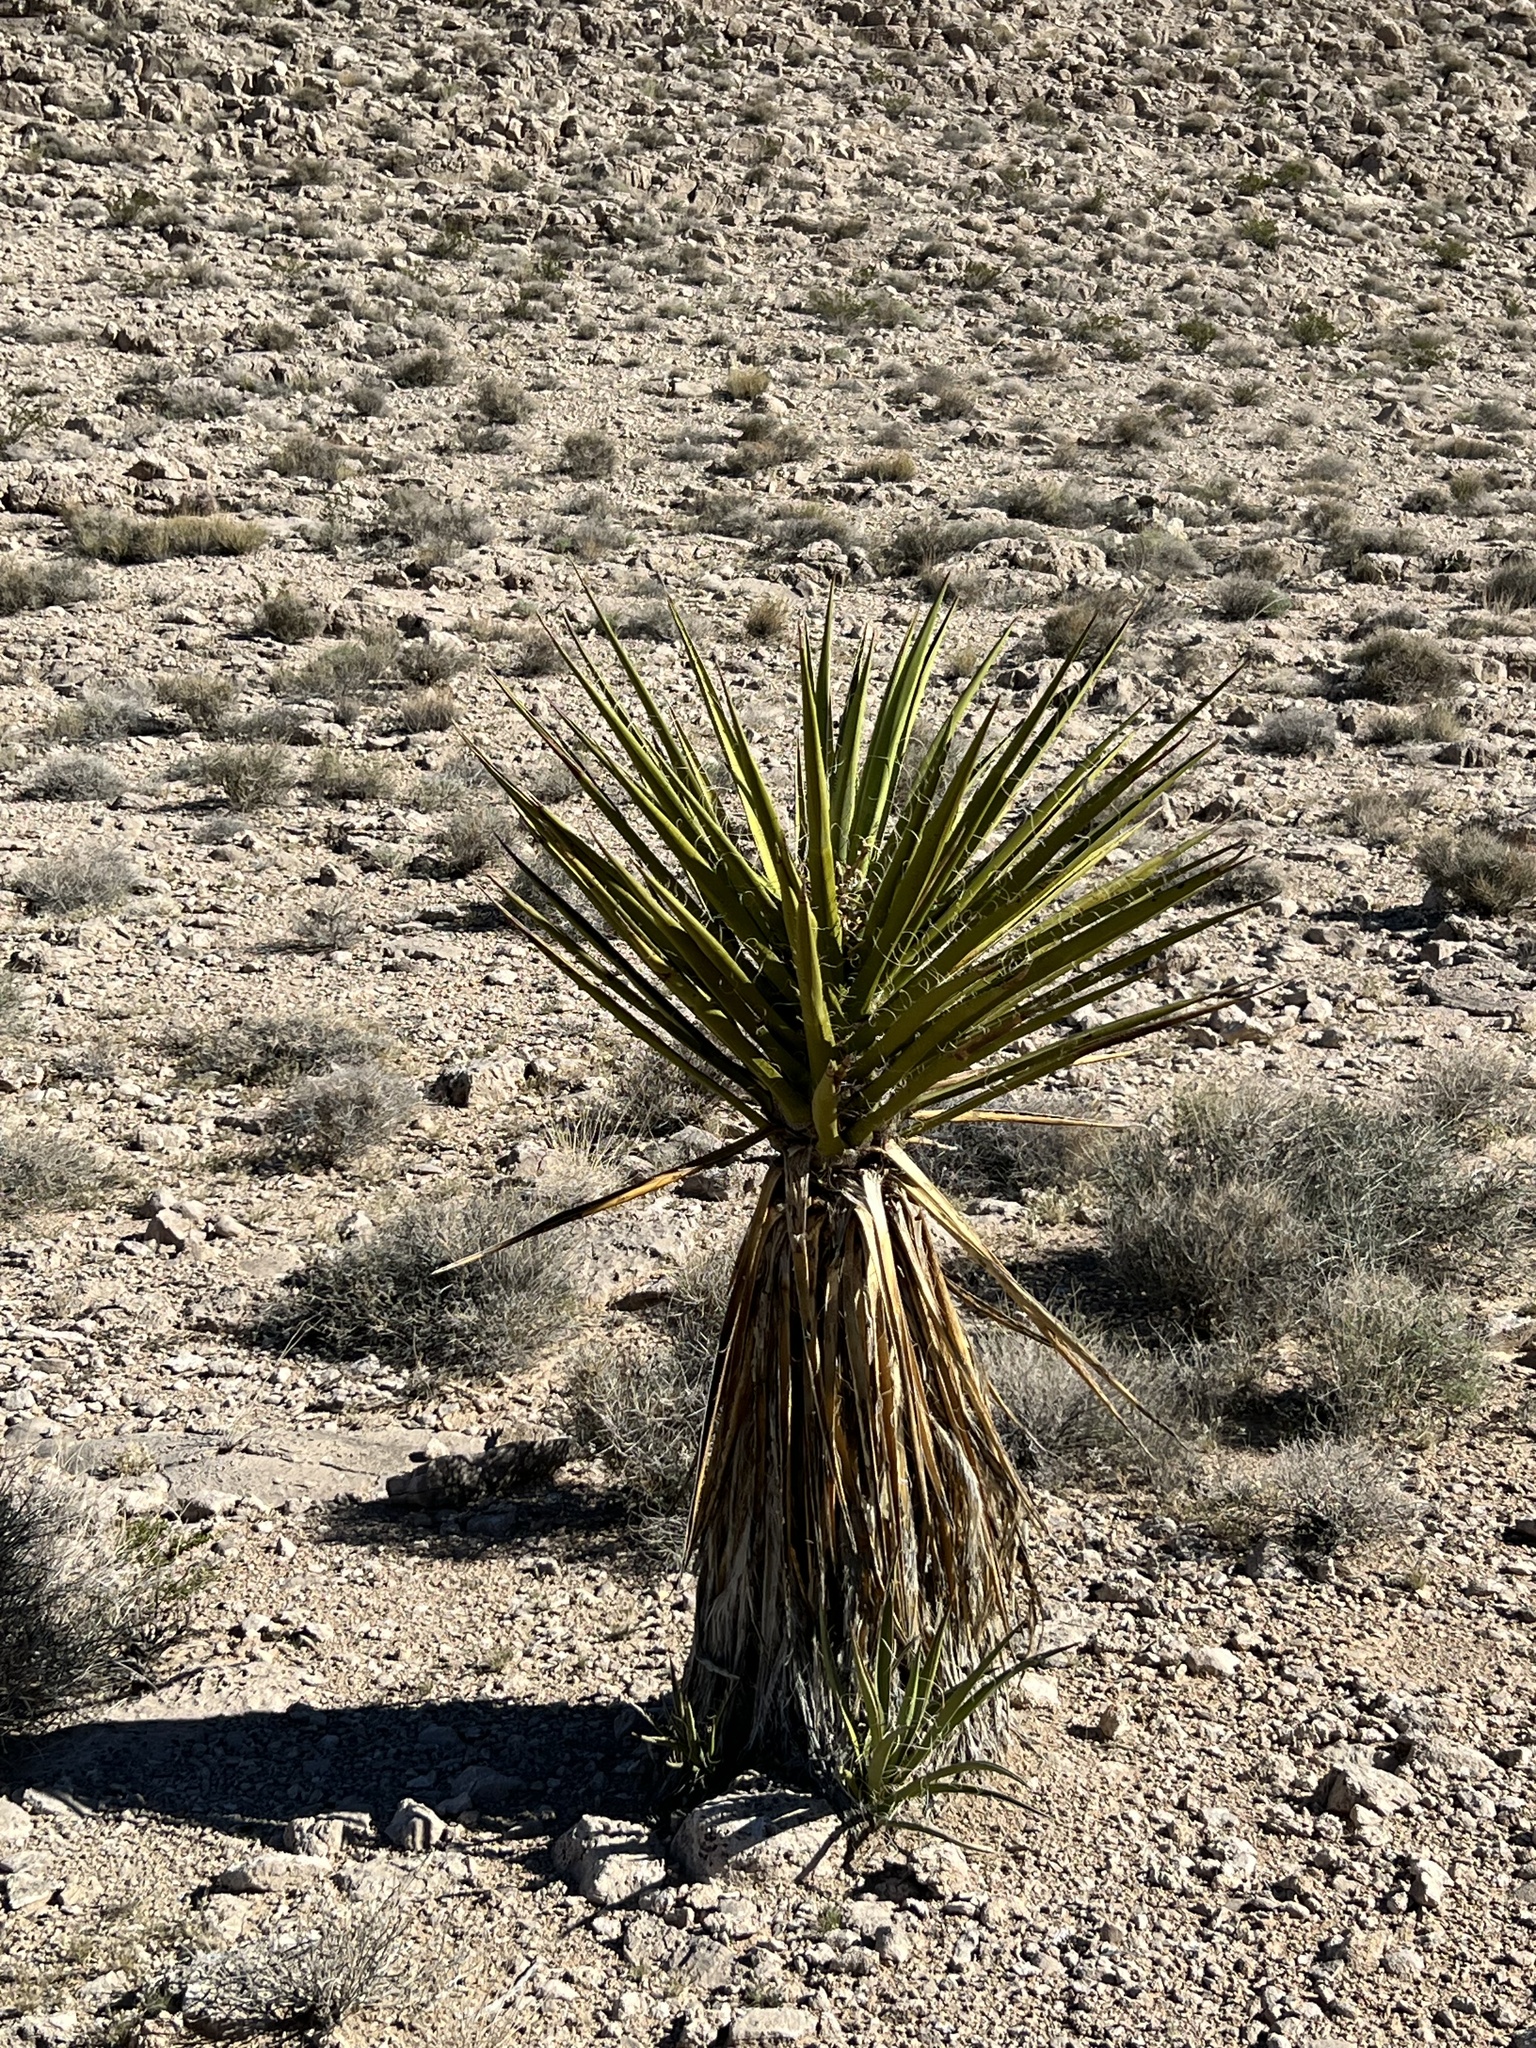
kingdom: Plantae
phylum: Tracheophyta
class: Liliopsida
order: Asparagales
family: Asparagaceae
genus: Yucca
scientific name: Yucca schidigera
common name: Mojave yucca
